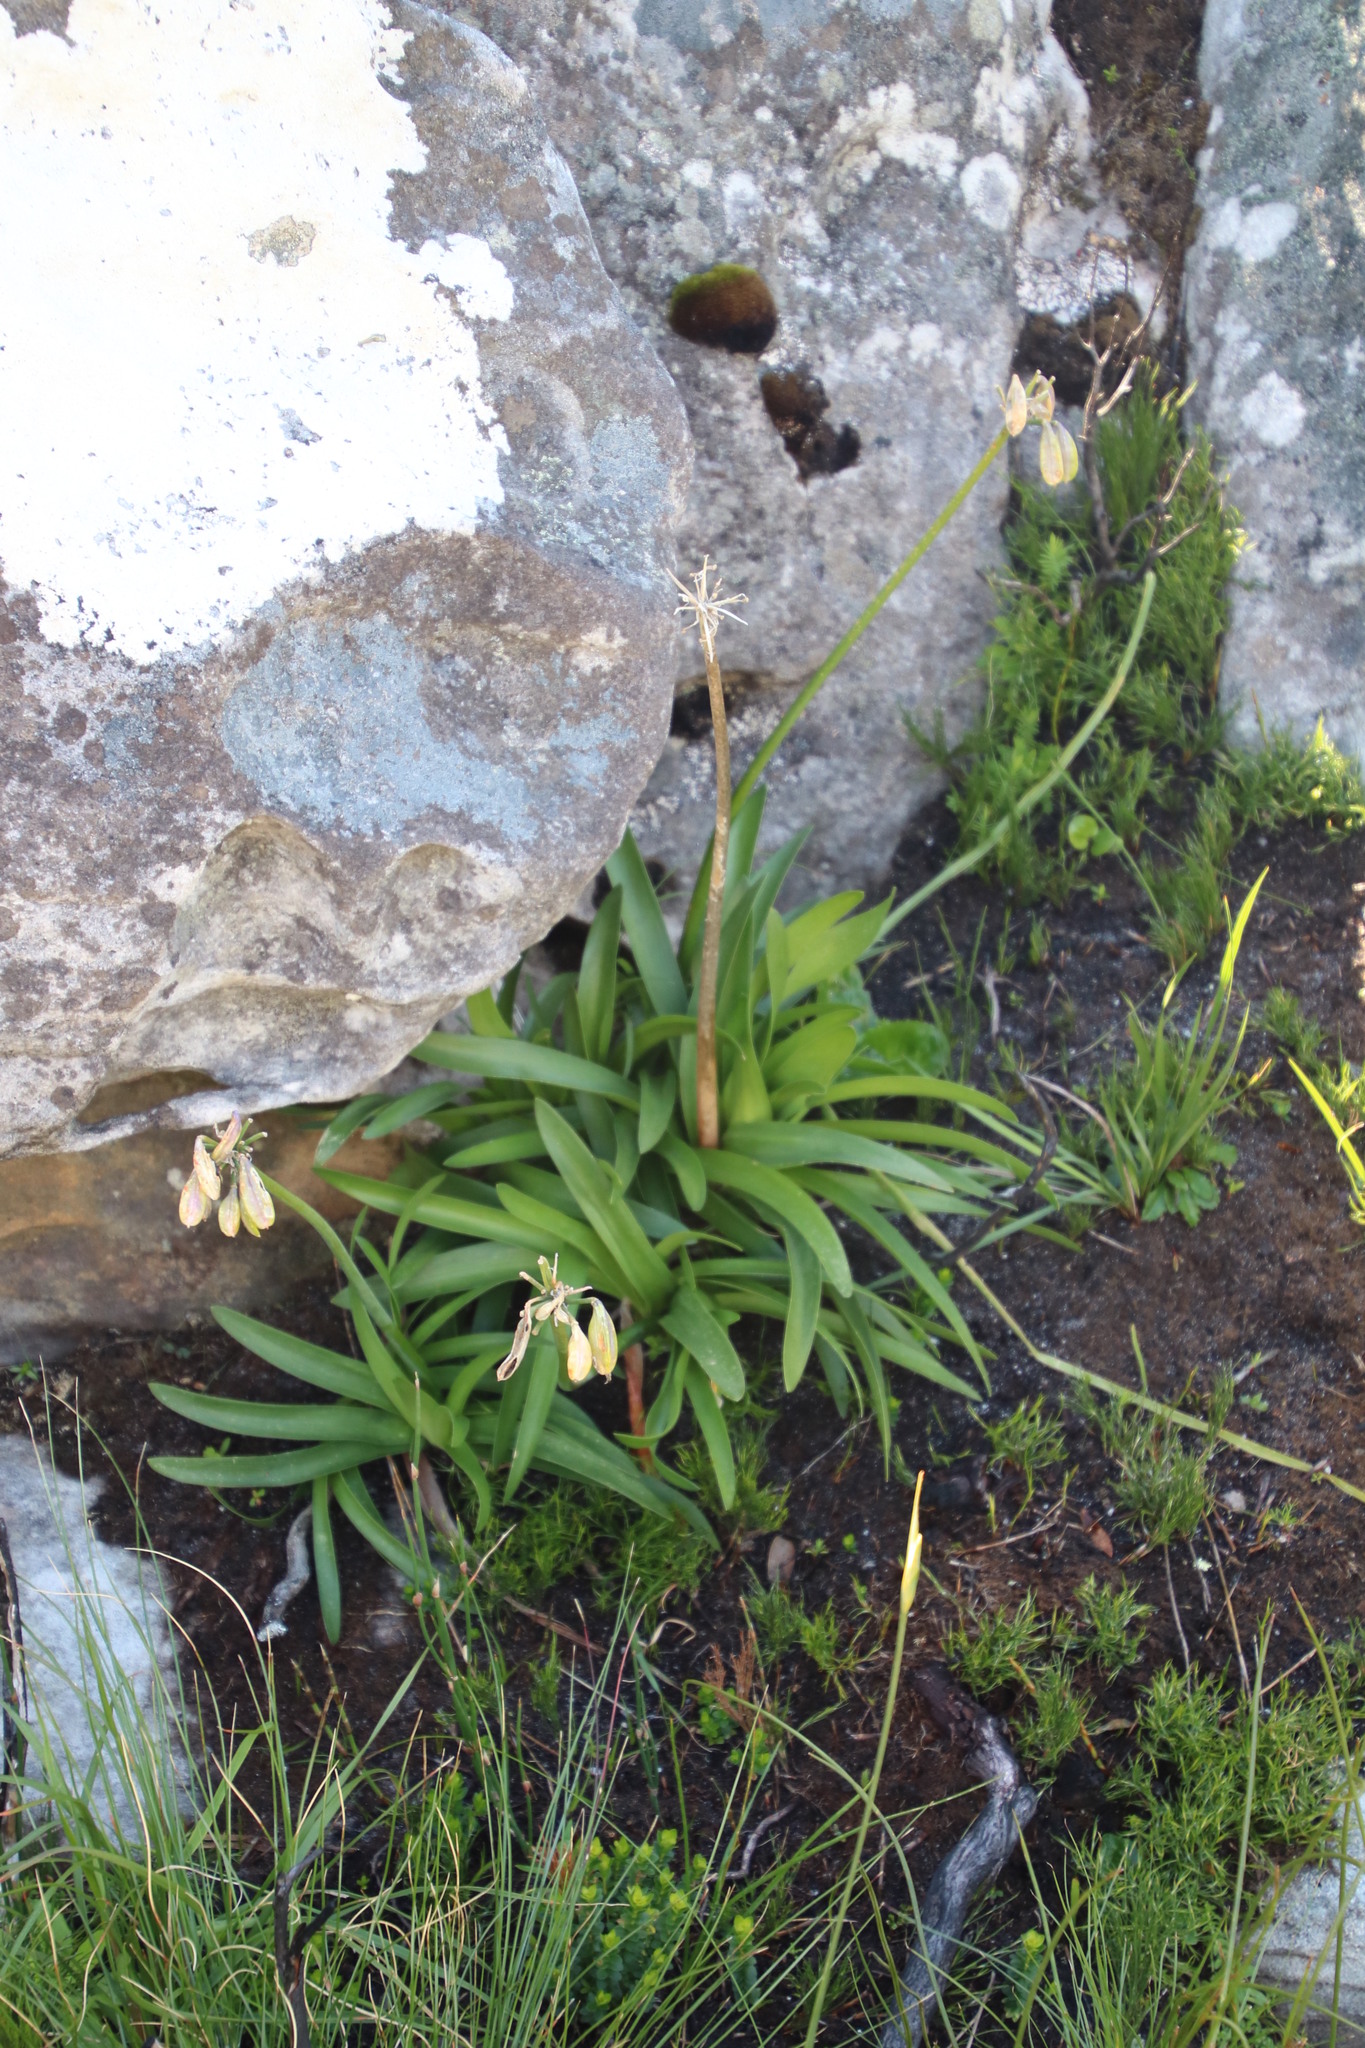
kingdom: Plantae
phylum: Tracheophyta
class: Liliopsida
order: Asparagales
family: Amaryllidaceae
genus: Agapanthus
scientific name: Agapanthus africanus
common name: Lily-of-the-nile
